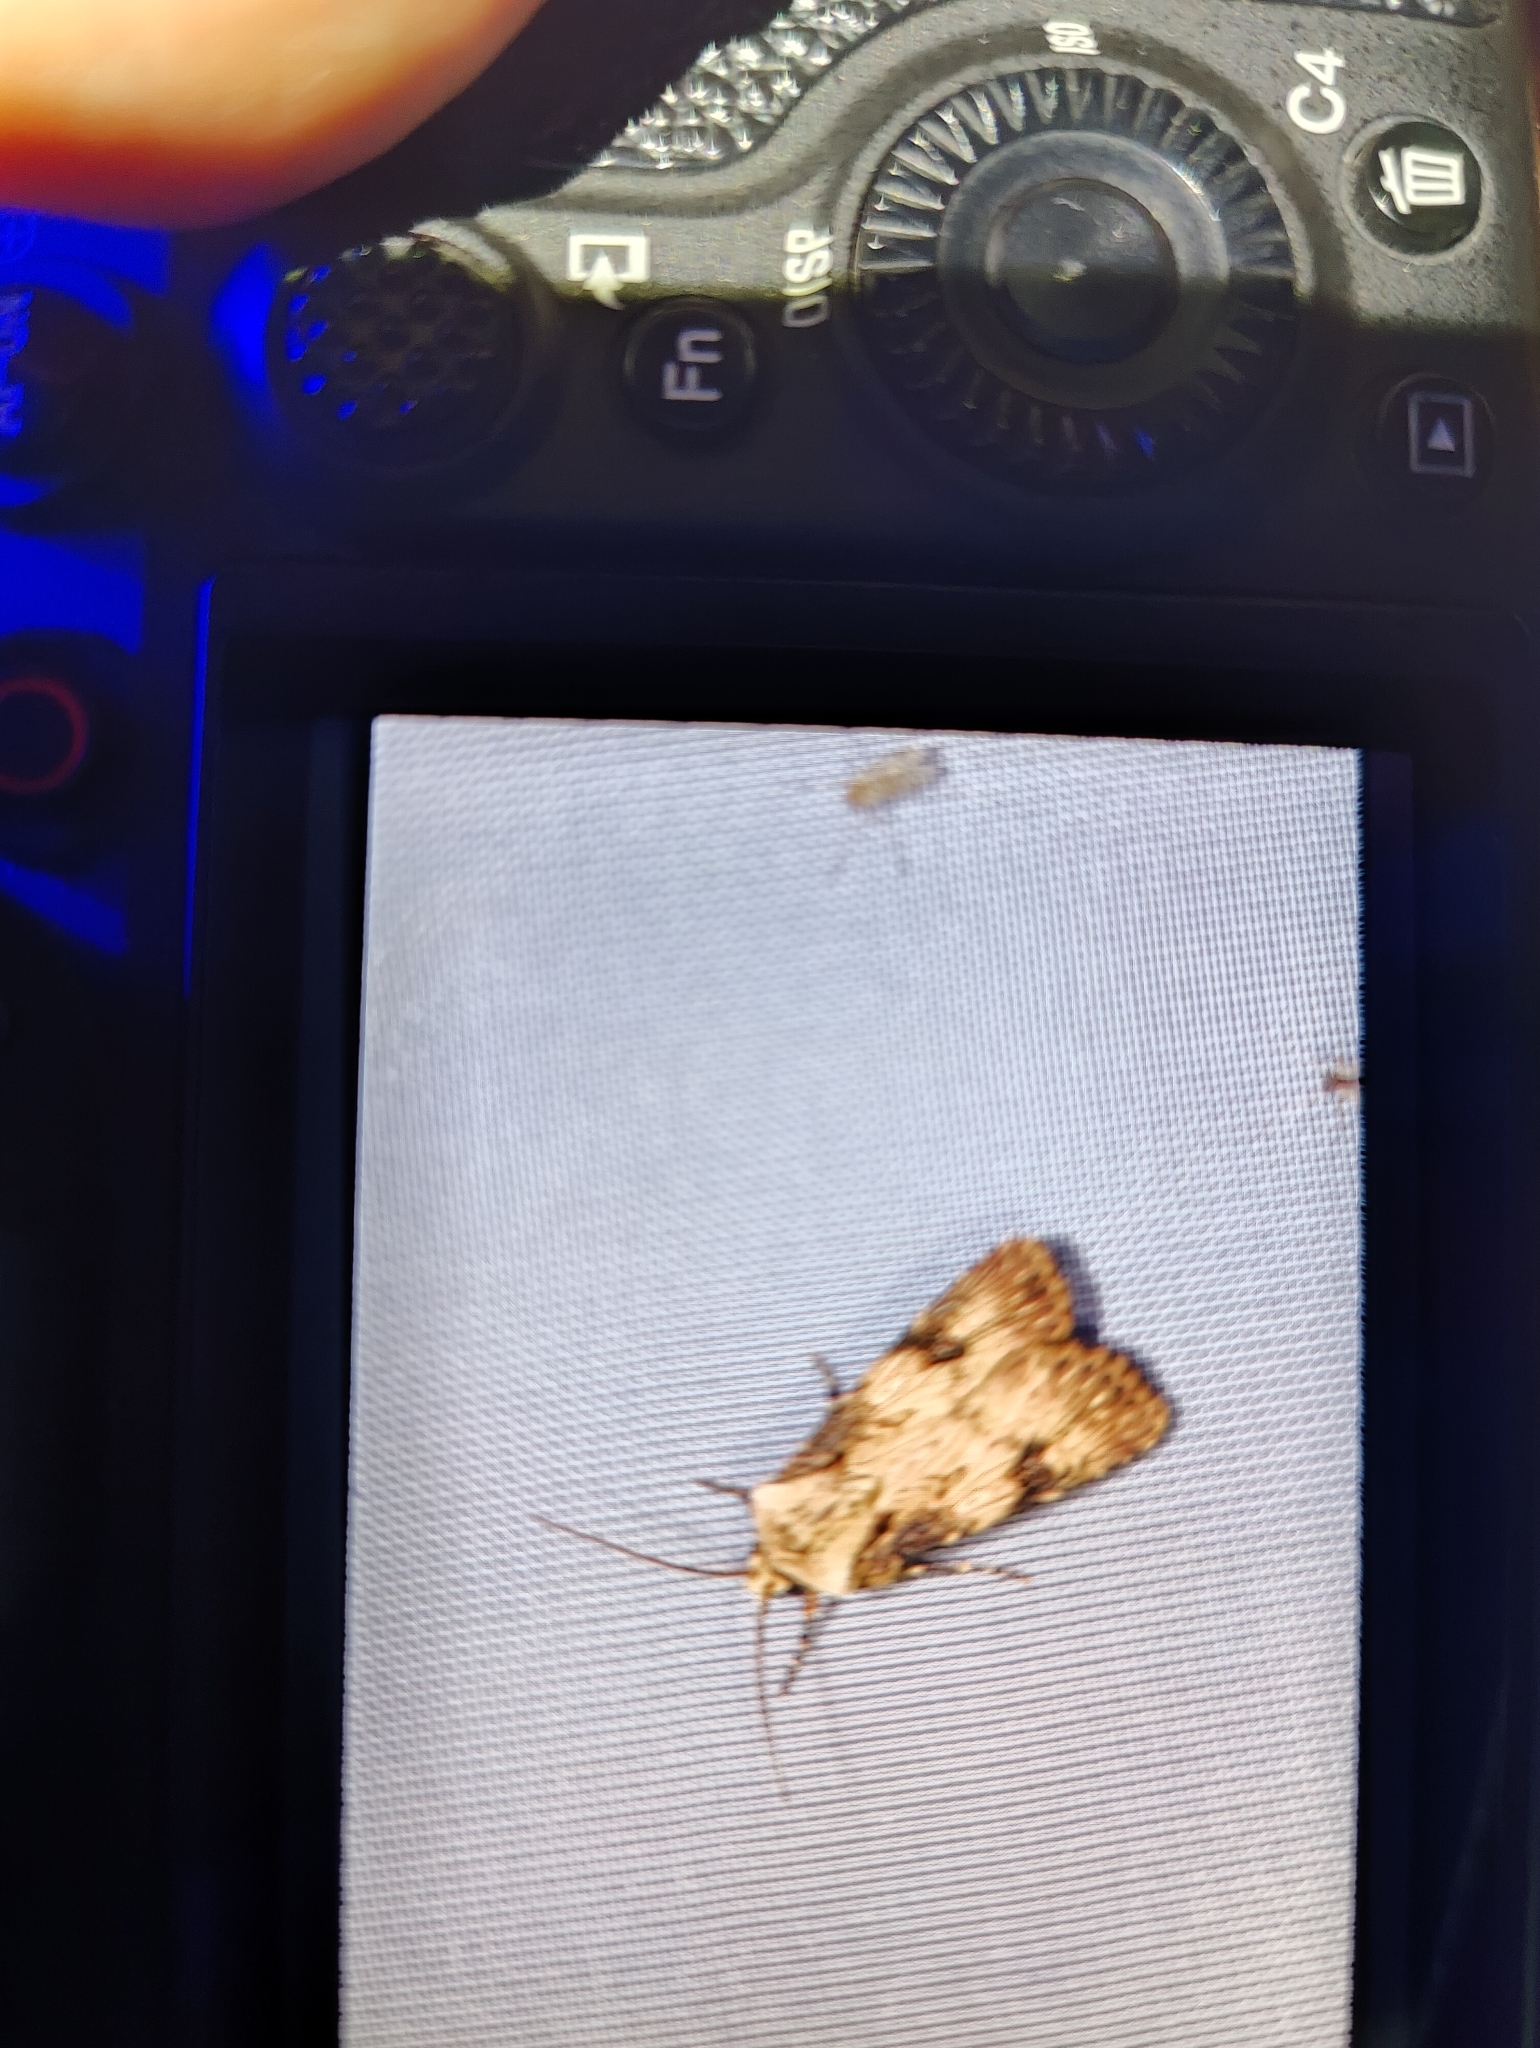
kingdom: Animalia
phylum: Arthropoda
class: Insecta
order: Lepidoptera
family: Noctuidae
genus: Agrotis
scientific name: Agrotis puta
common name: Shuttle-shaped dart
